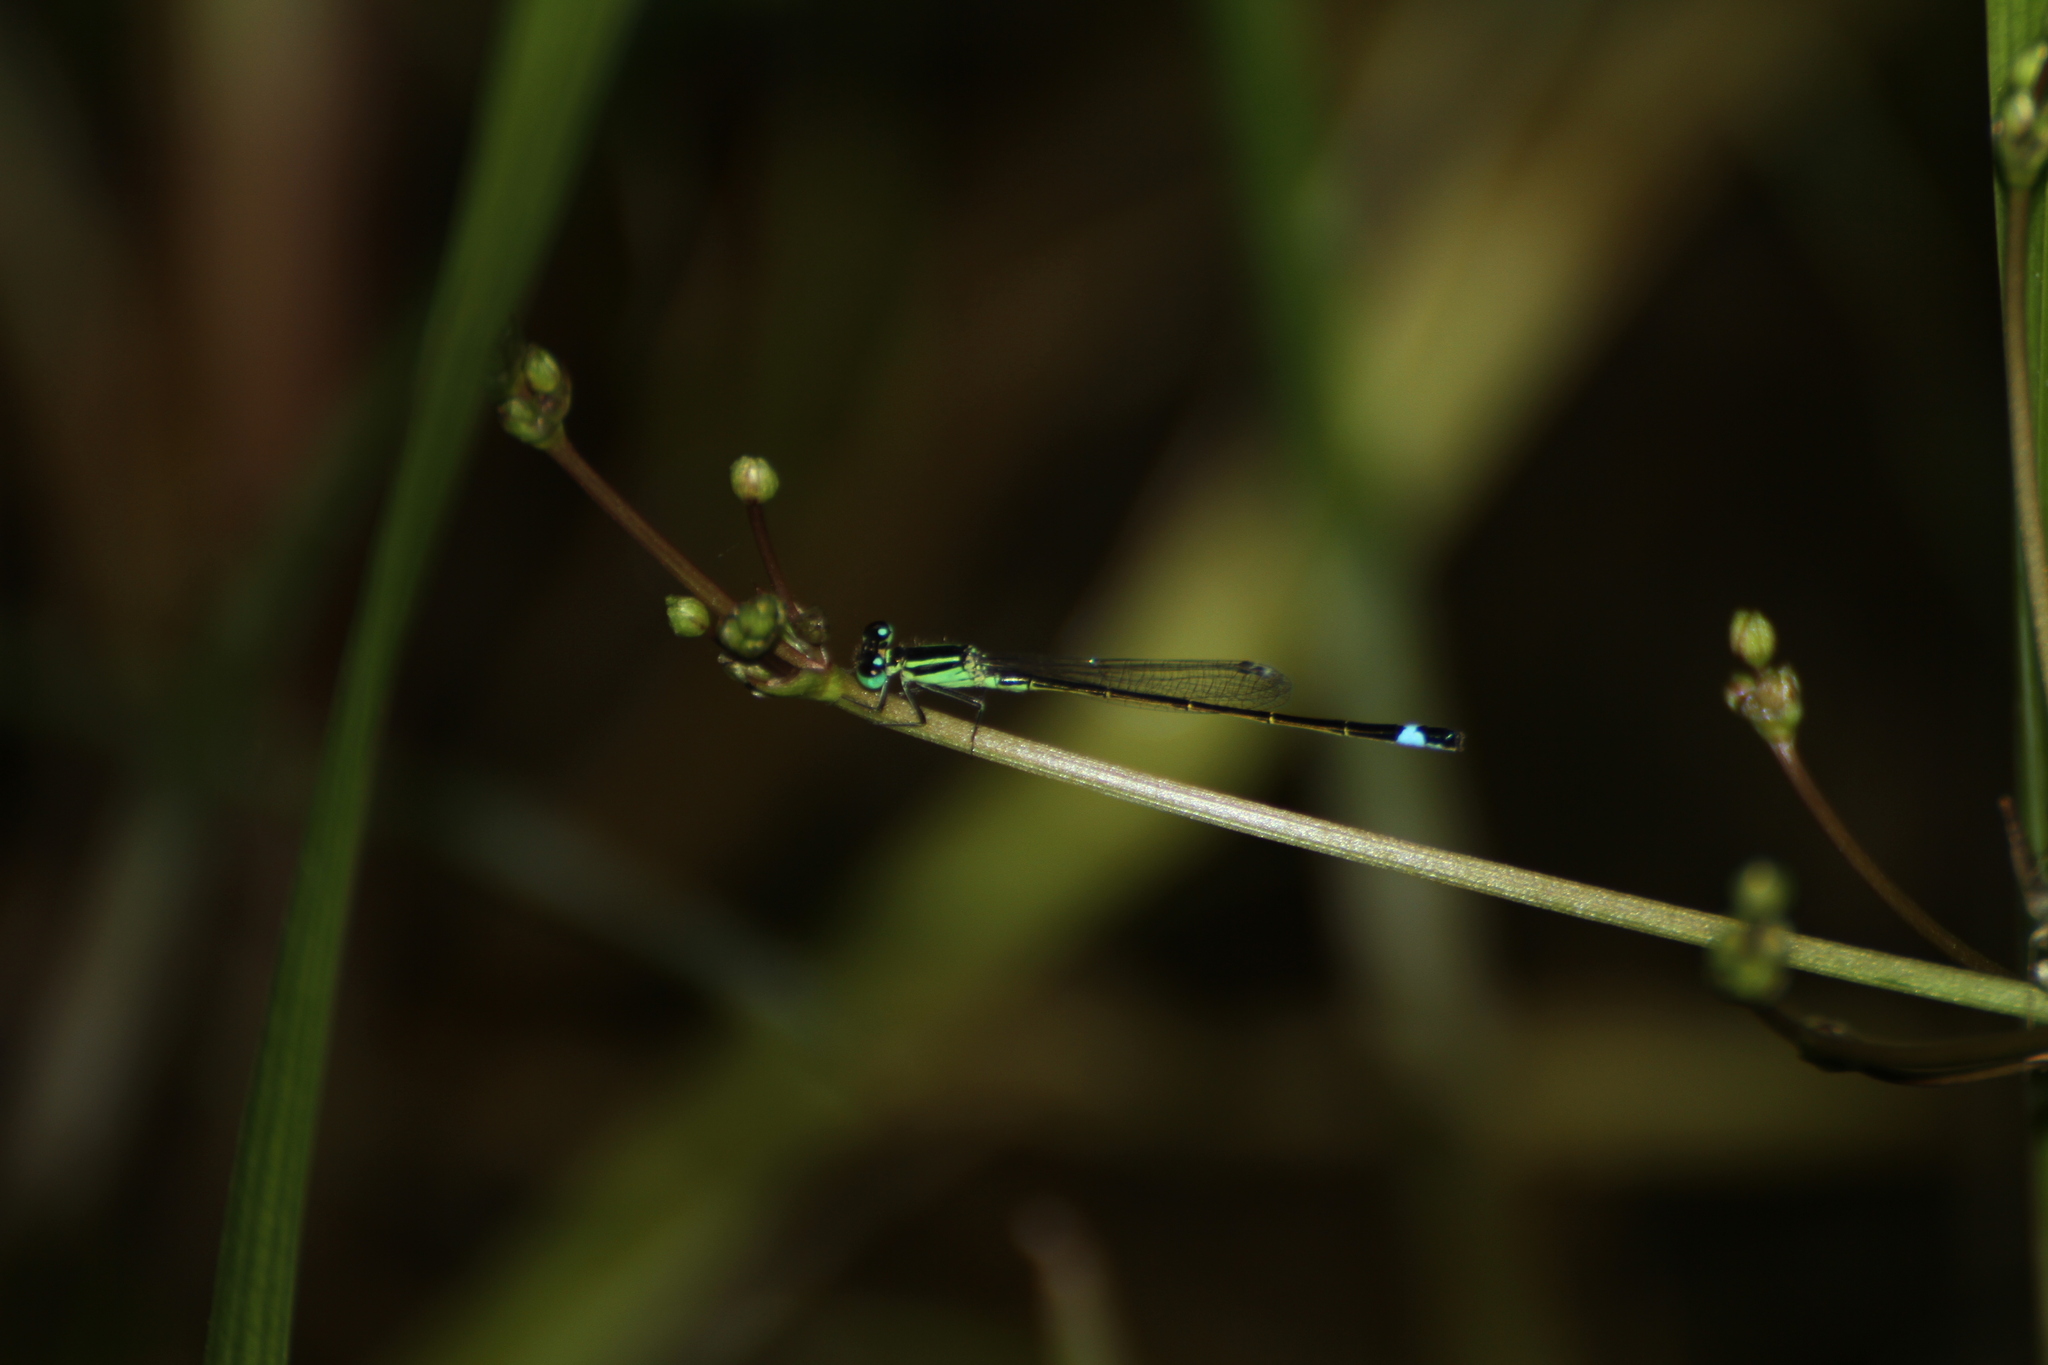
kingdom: Animalia
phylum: Arthropoda
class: Insecta
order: Odonata
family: Coenagrionidae
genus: Ischnura
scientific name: Ischnura elegans
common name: Blue-tailed damselfly
